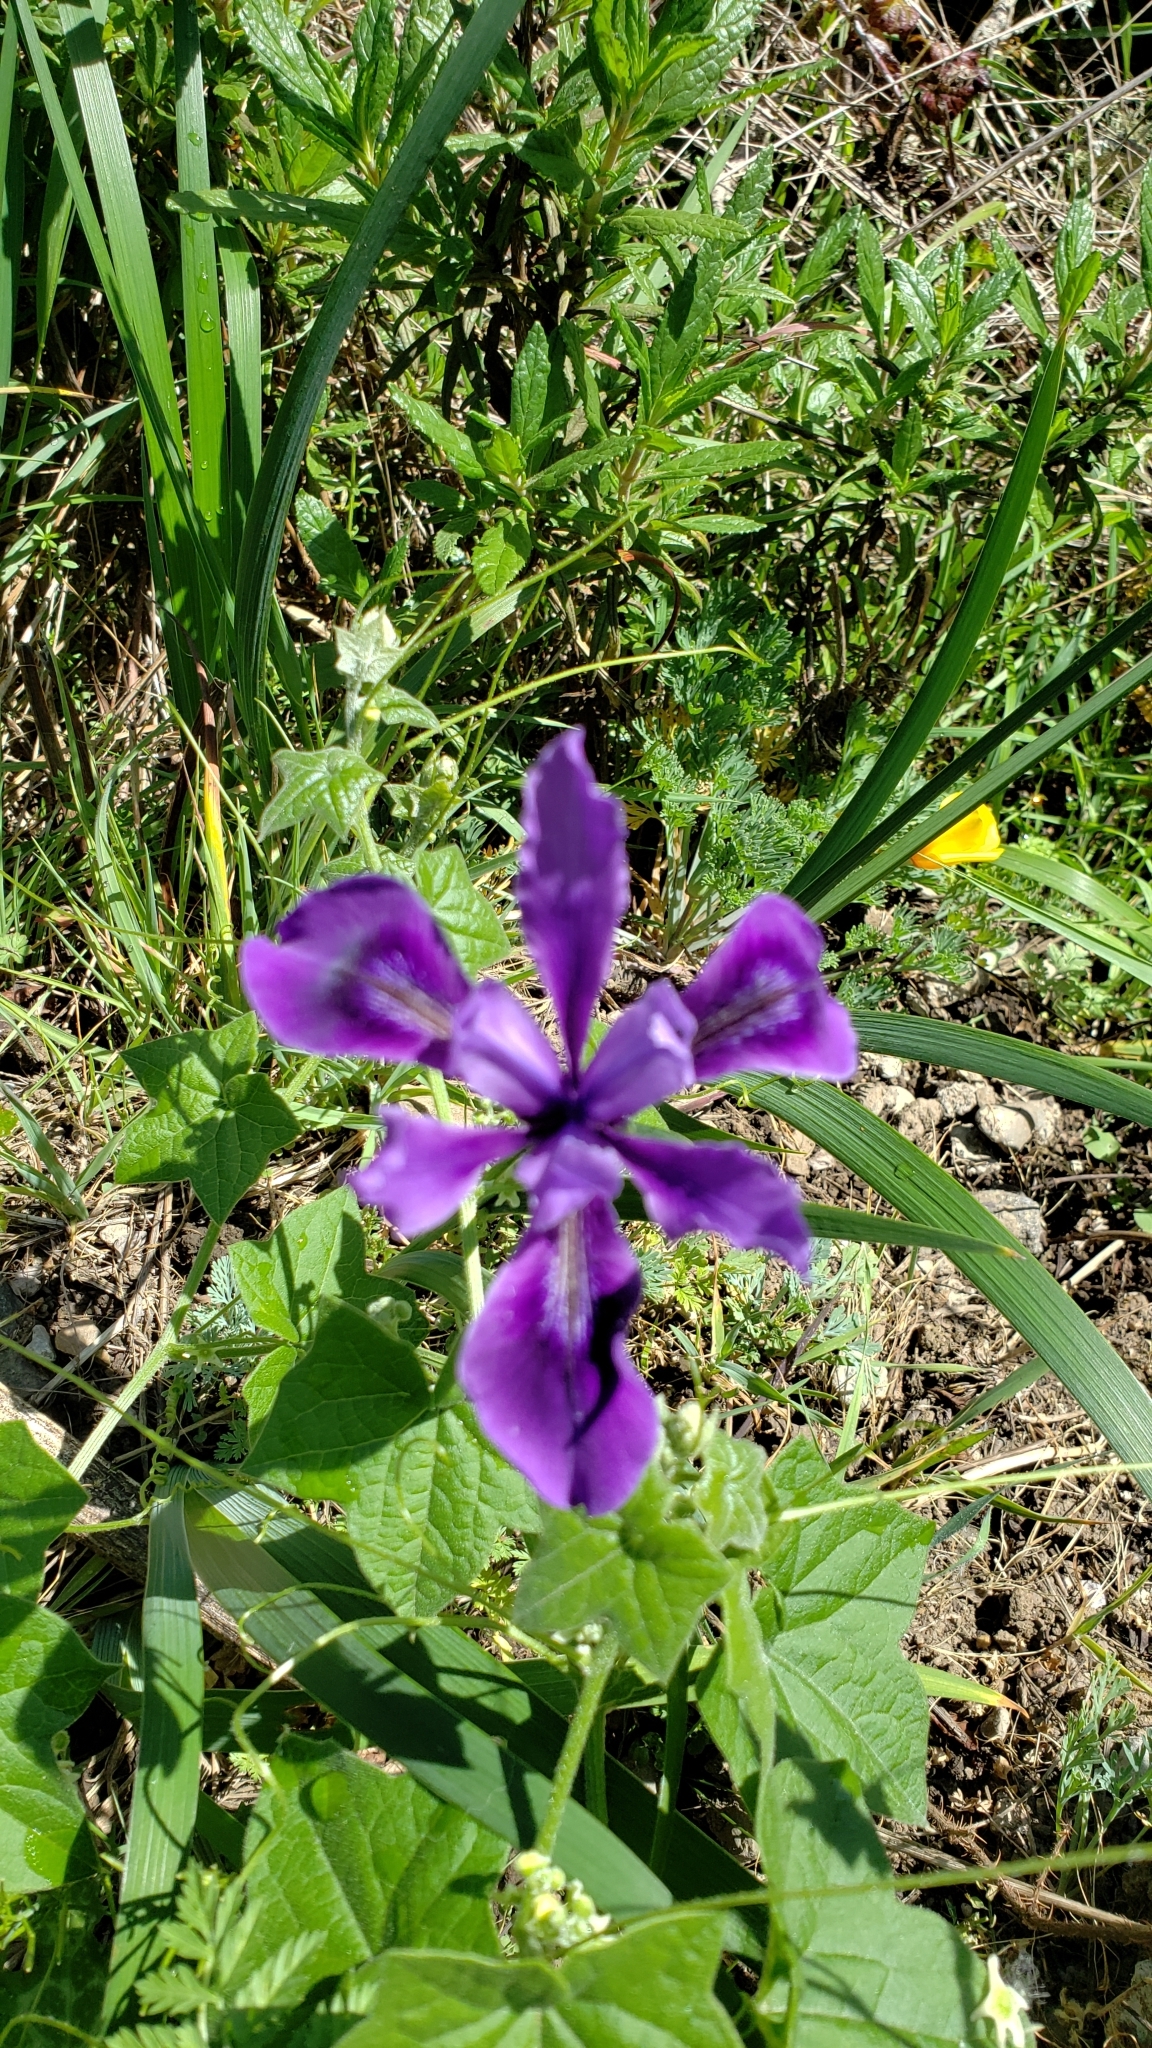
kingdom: Plantae
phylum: Tracheophyta
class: Liliopsida
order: Asparagales
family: Iridaceae
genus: Iris
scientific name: Iris douglasiana
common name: Marin iris
